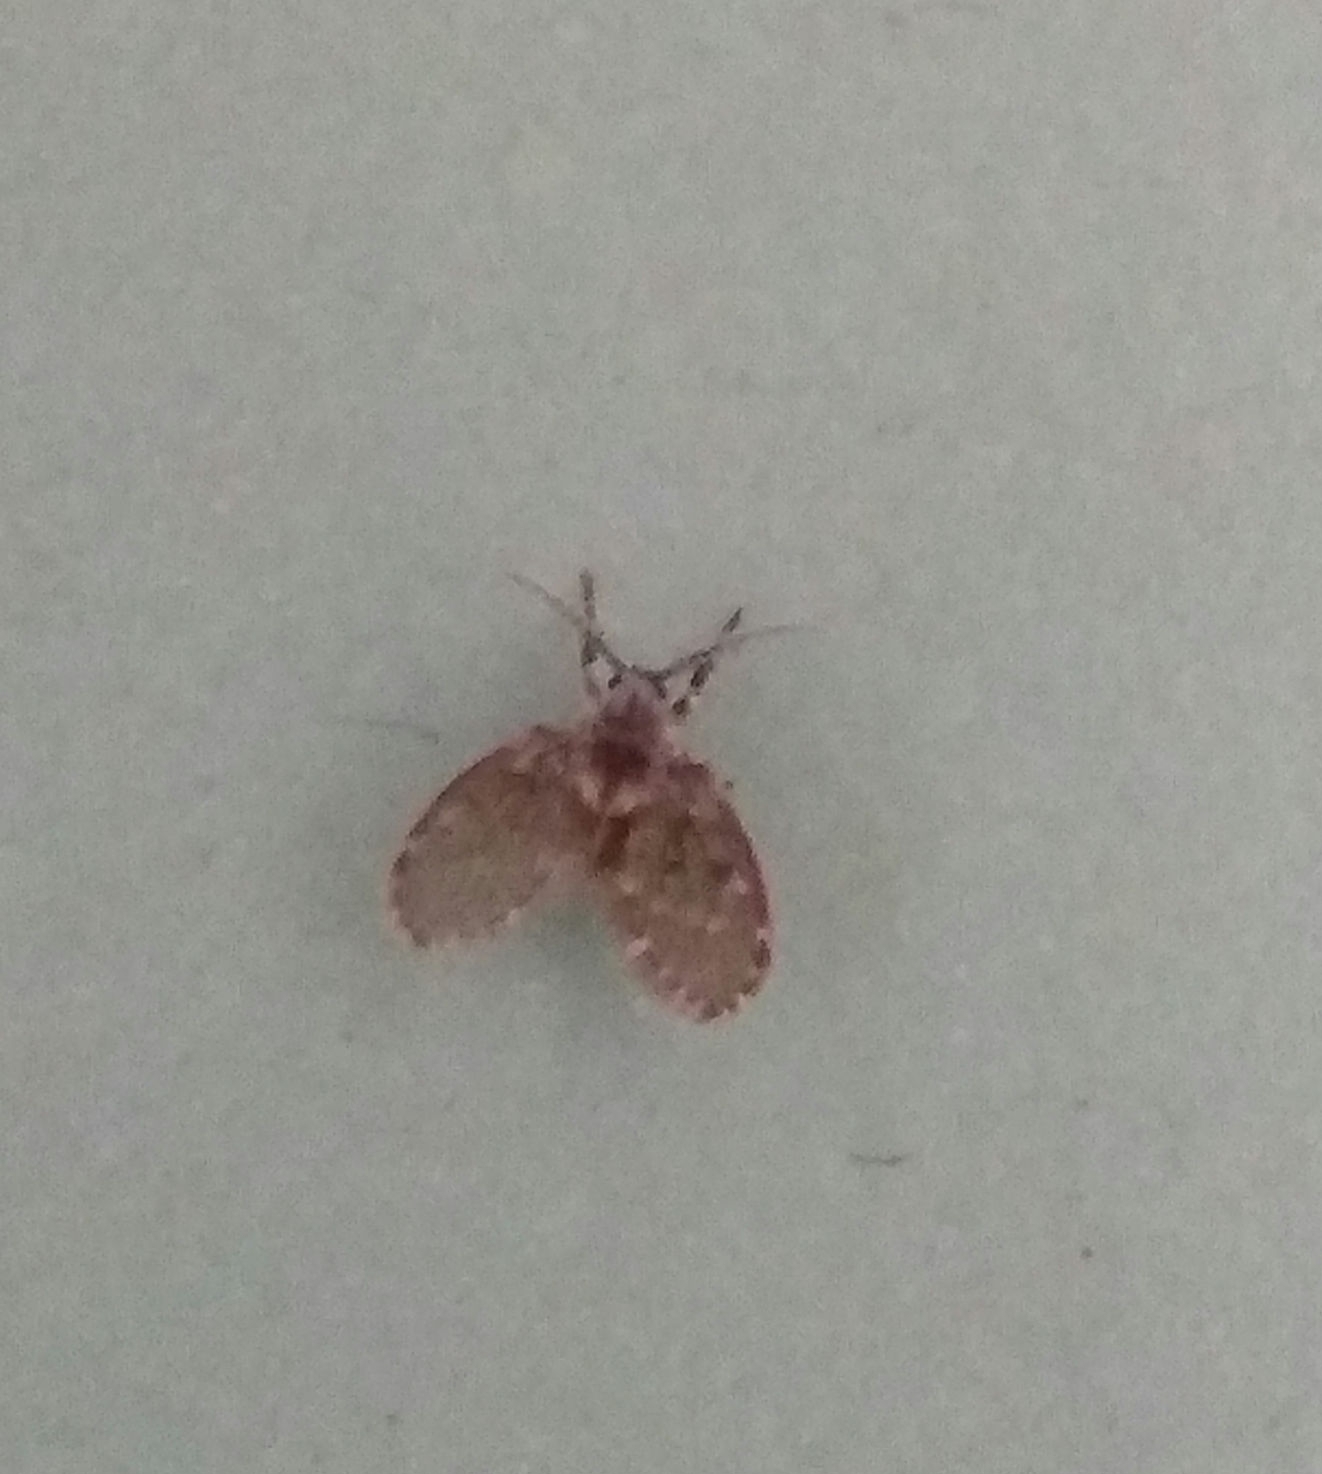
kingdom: Animalia
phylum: Arthropoda
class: Insecta
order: Diptera
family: Psychodidae
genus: Clogmia
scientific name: Clogmia albipunctatus
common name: White-spotted moth fly
